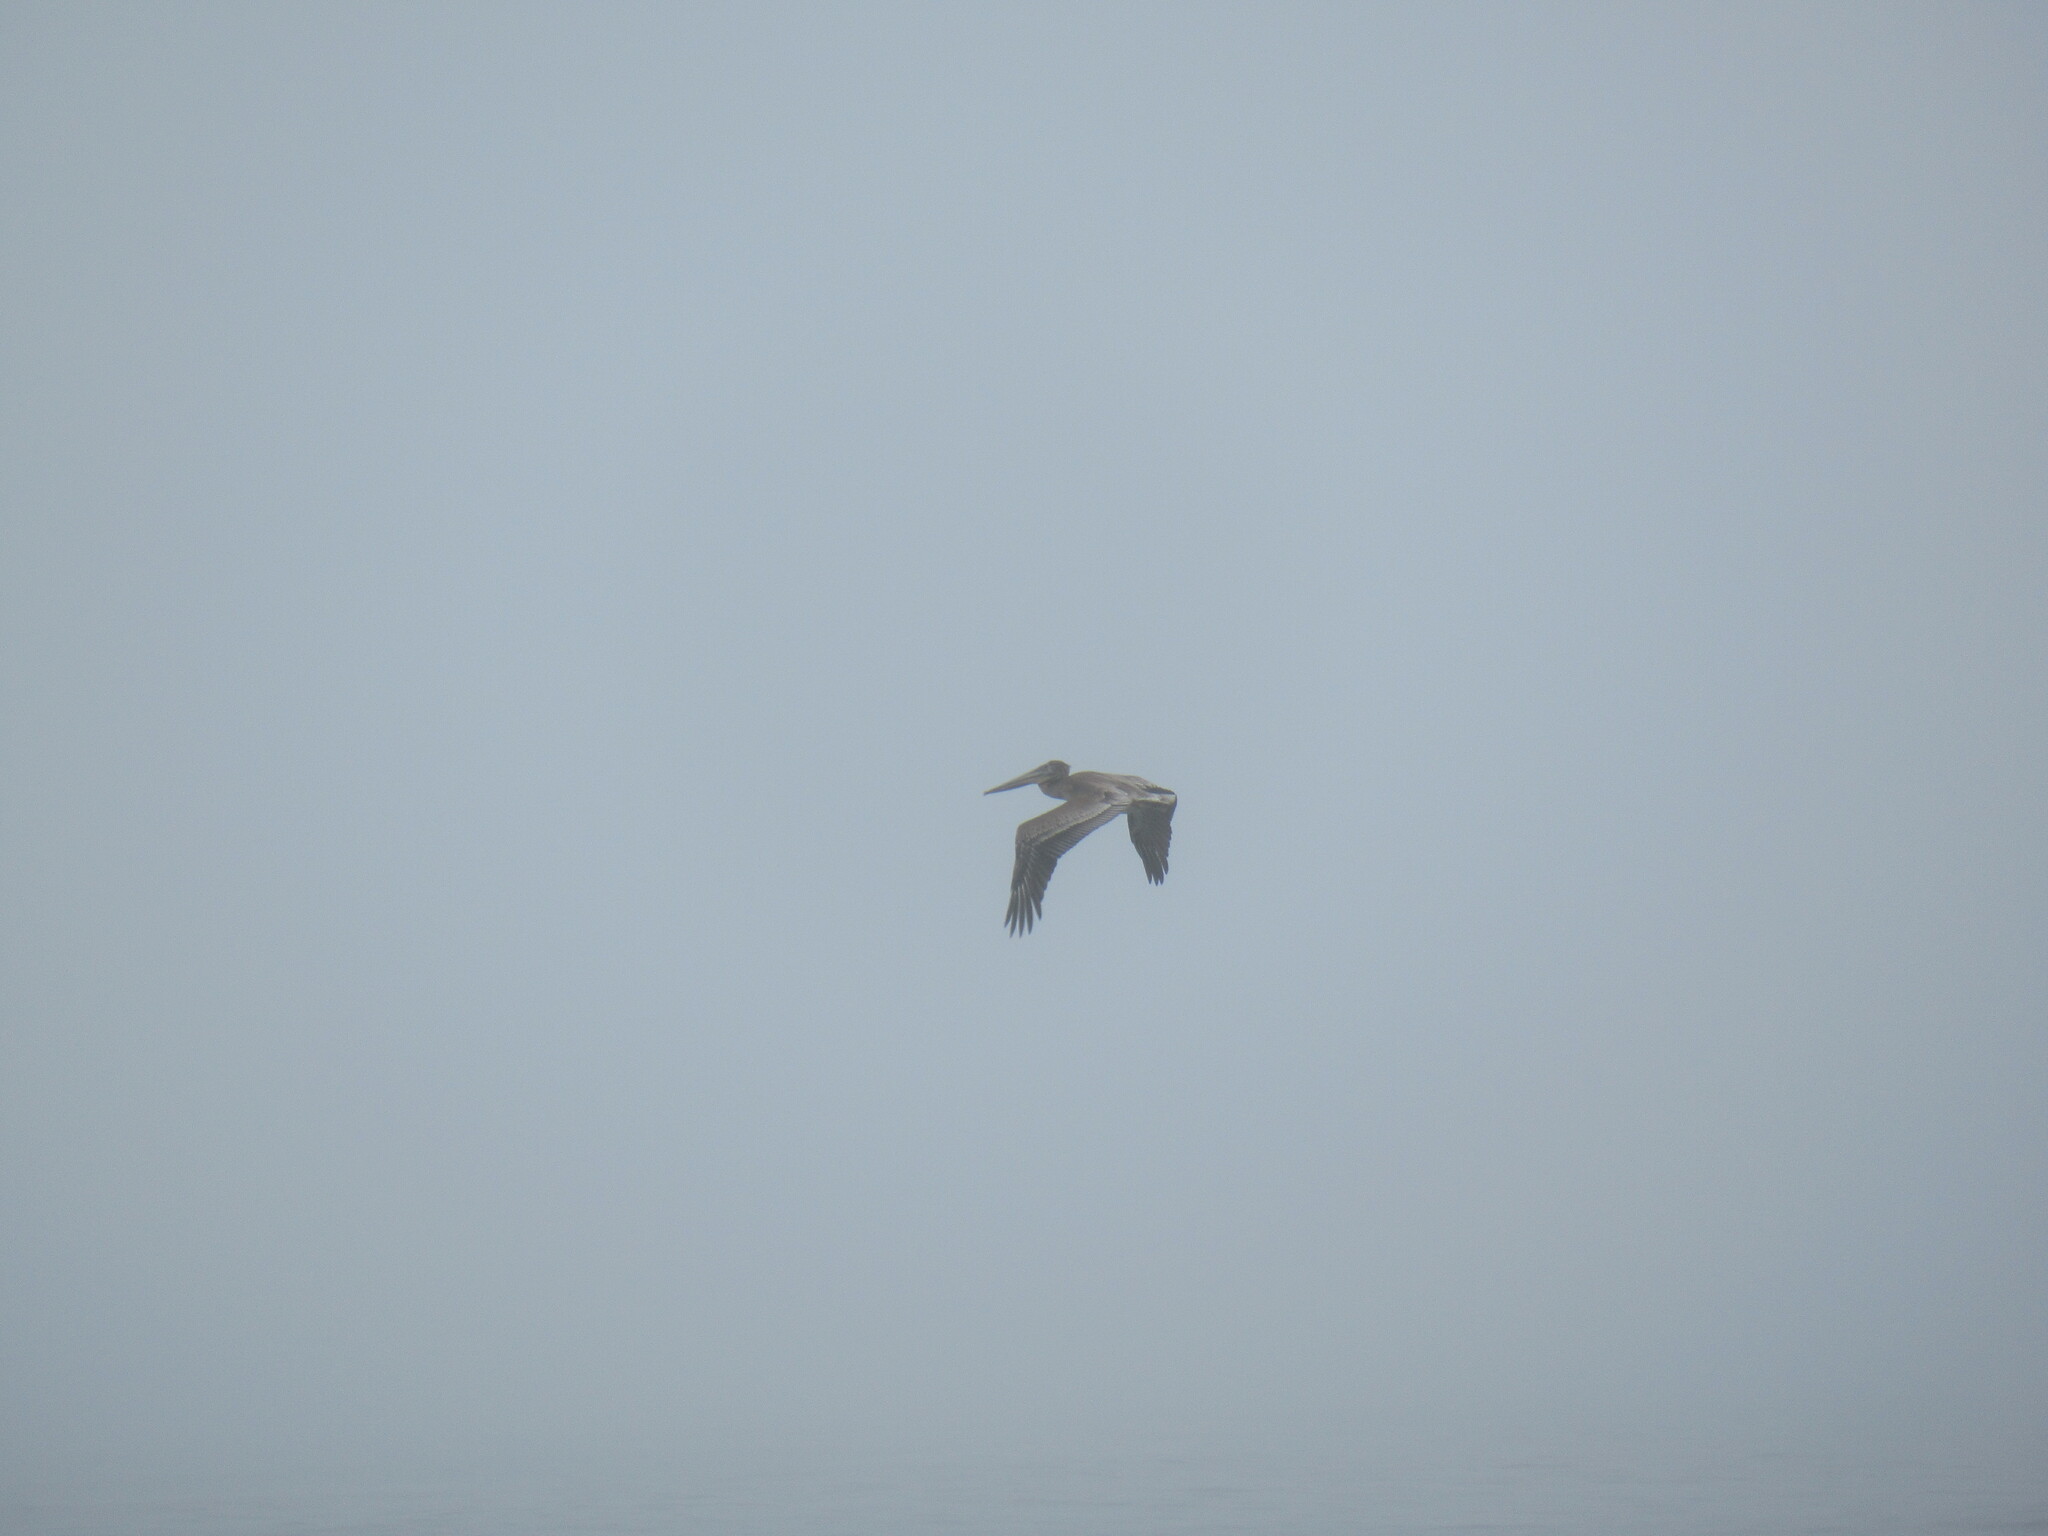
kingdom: Animalia
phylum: Chordata
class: Aves
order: Pelecaniformes
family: Pelecanidae
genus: Pelecanus
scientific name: Pelecanus occidentalis
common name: Brown pelican
